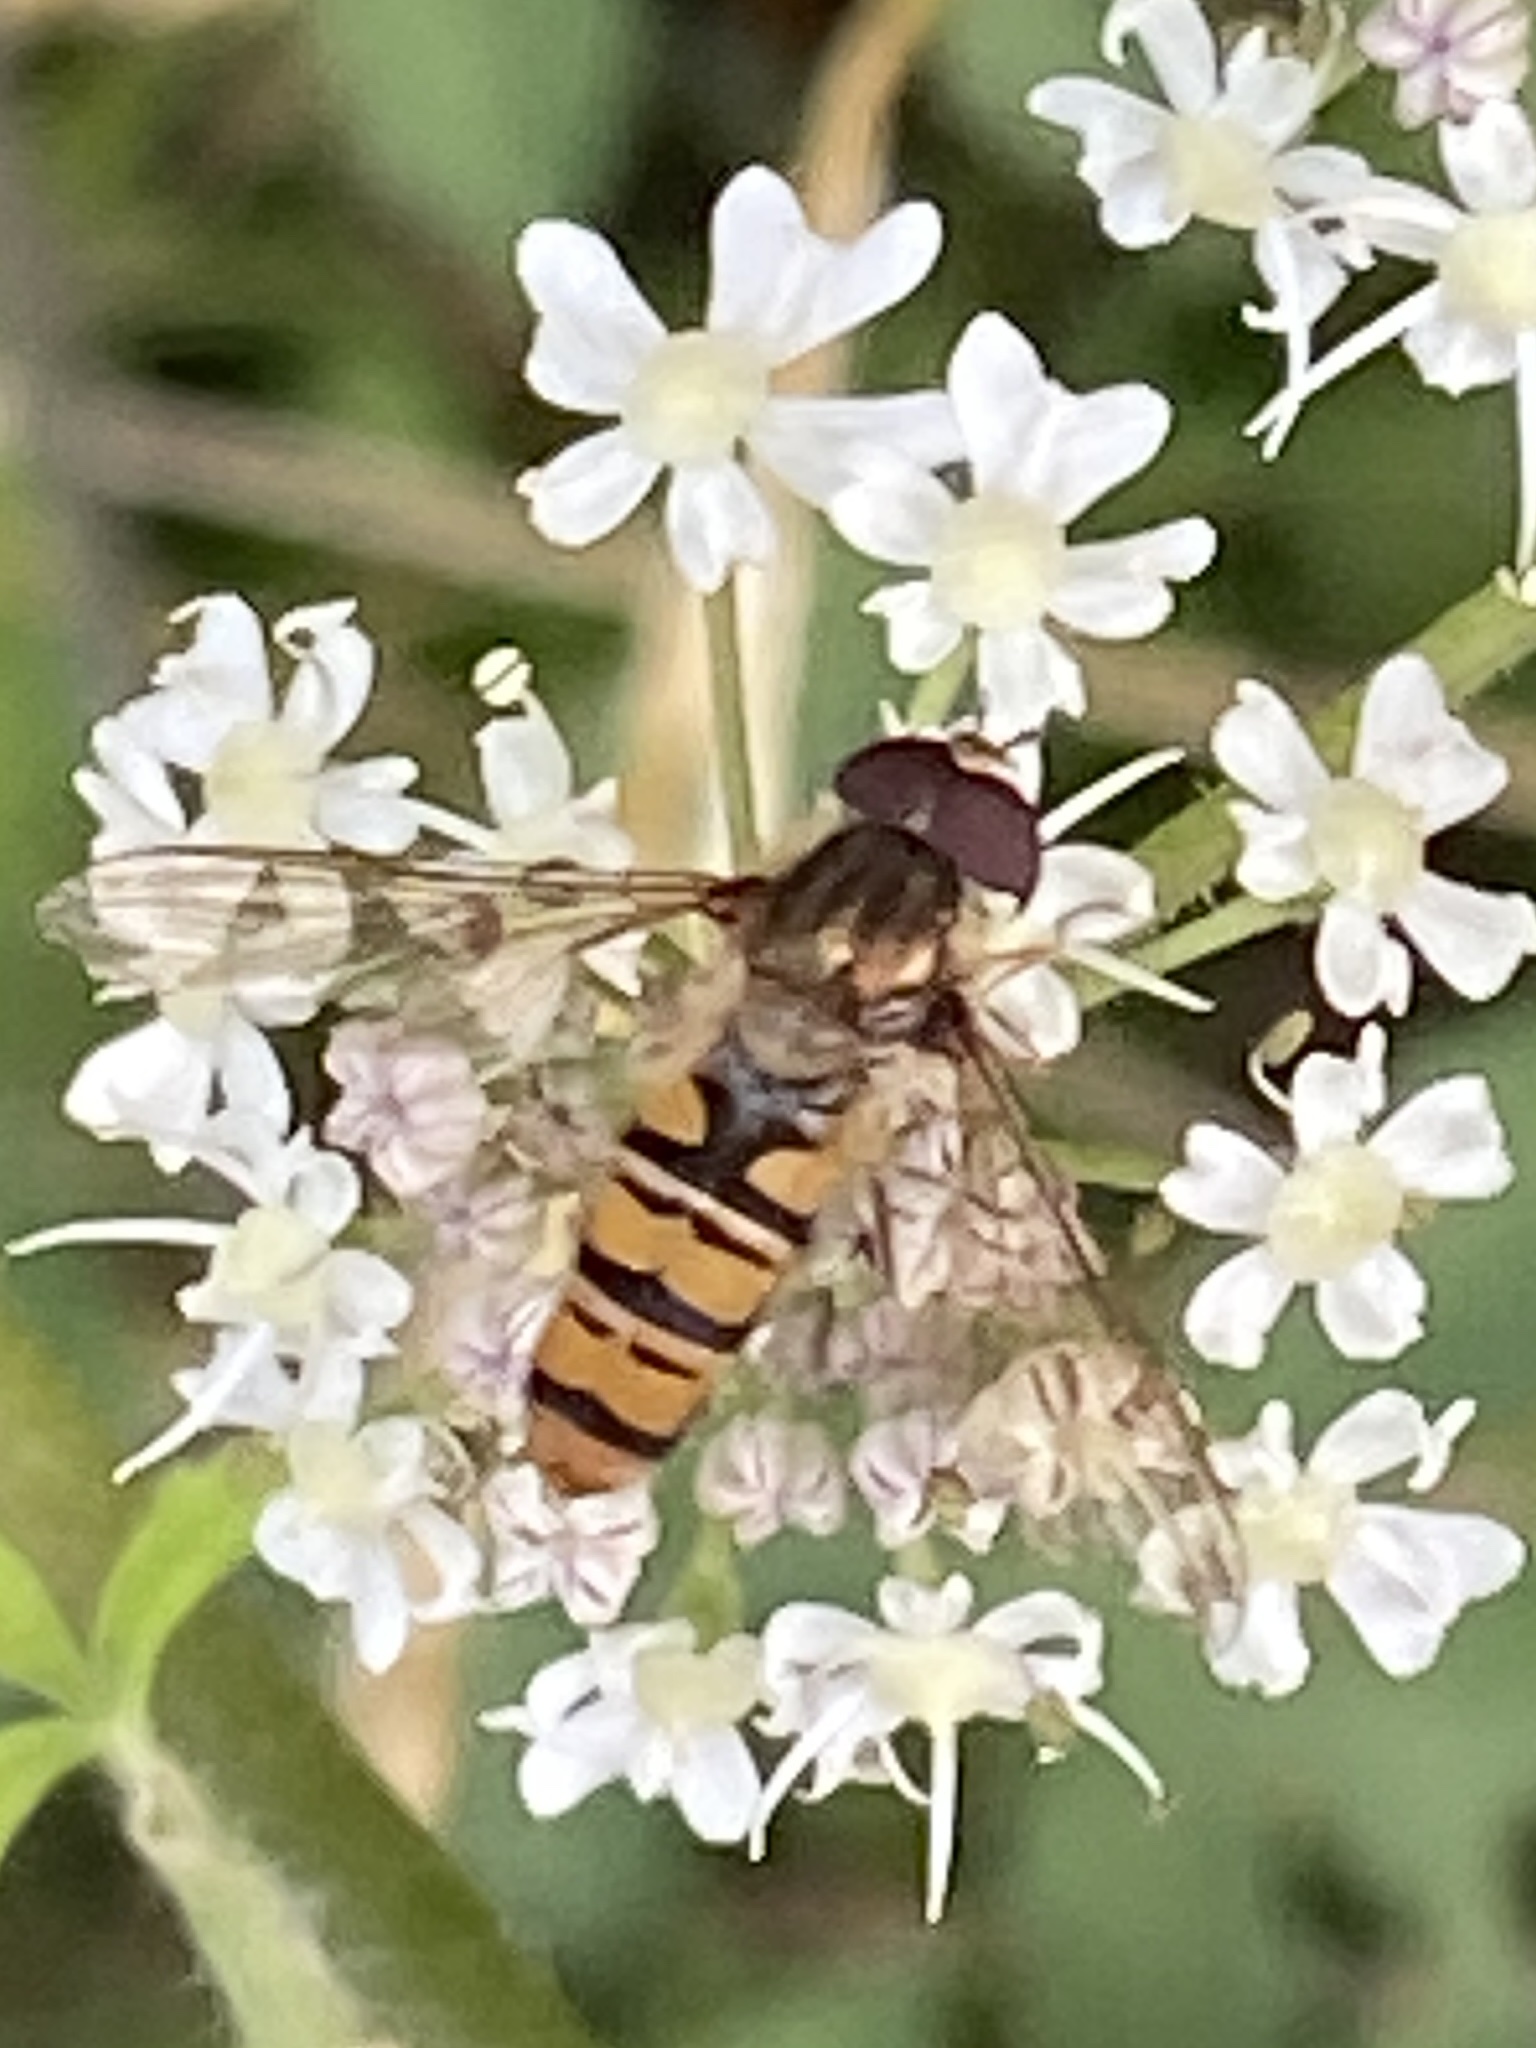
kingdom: Animalia
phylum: Arthropoda
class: Insecta
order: Diptera
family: Syrphidae
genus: Episyrphus
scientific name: Episyrphus balteatus
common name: Marmalade hoverfly
